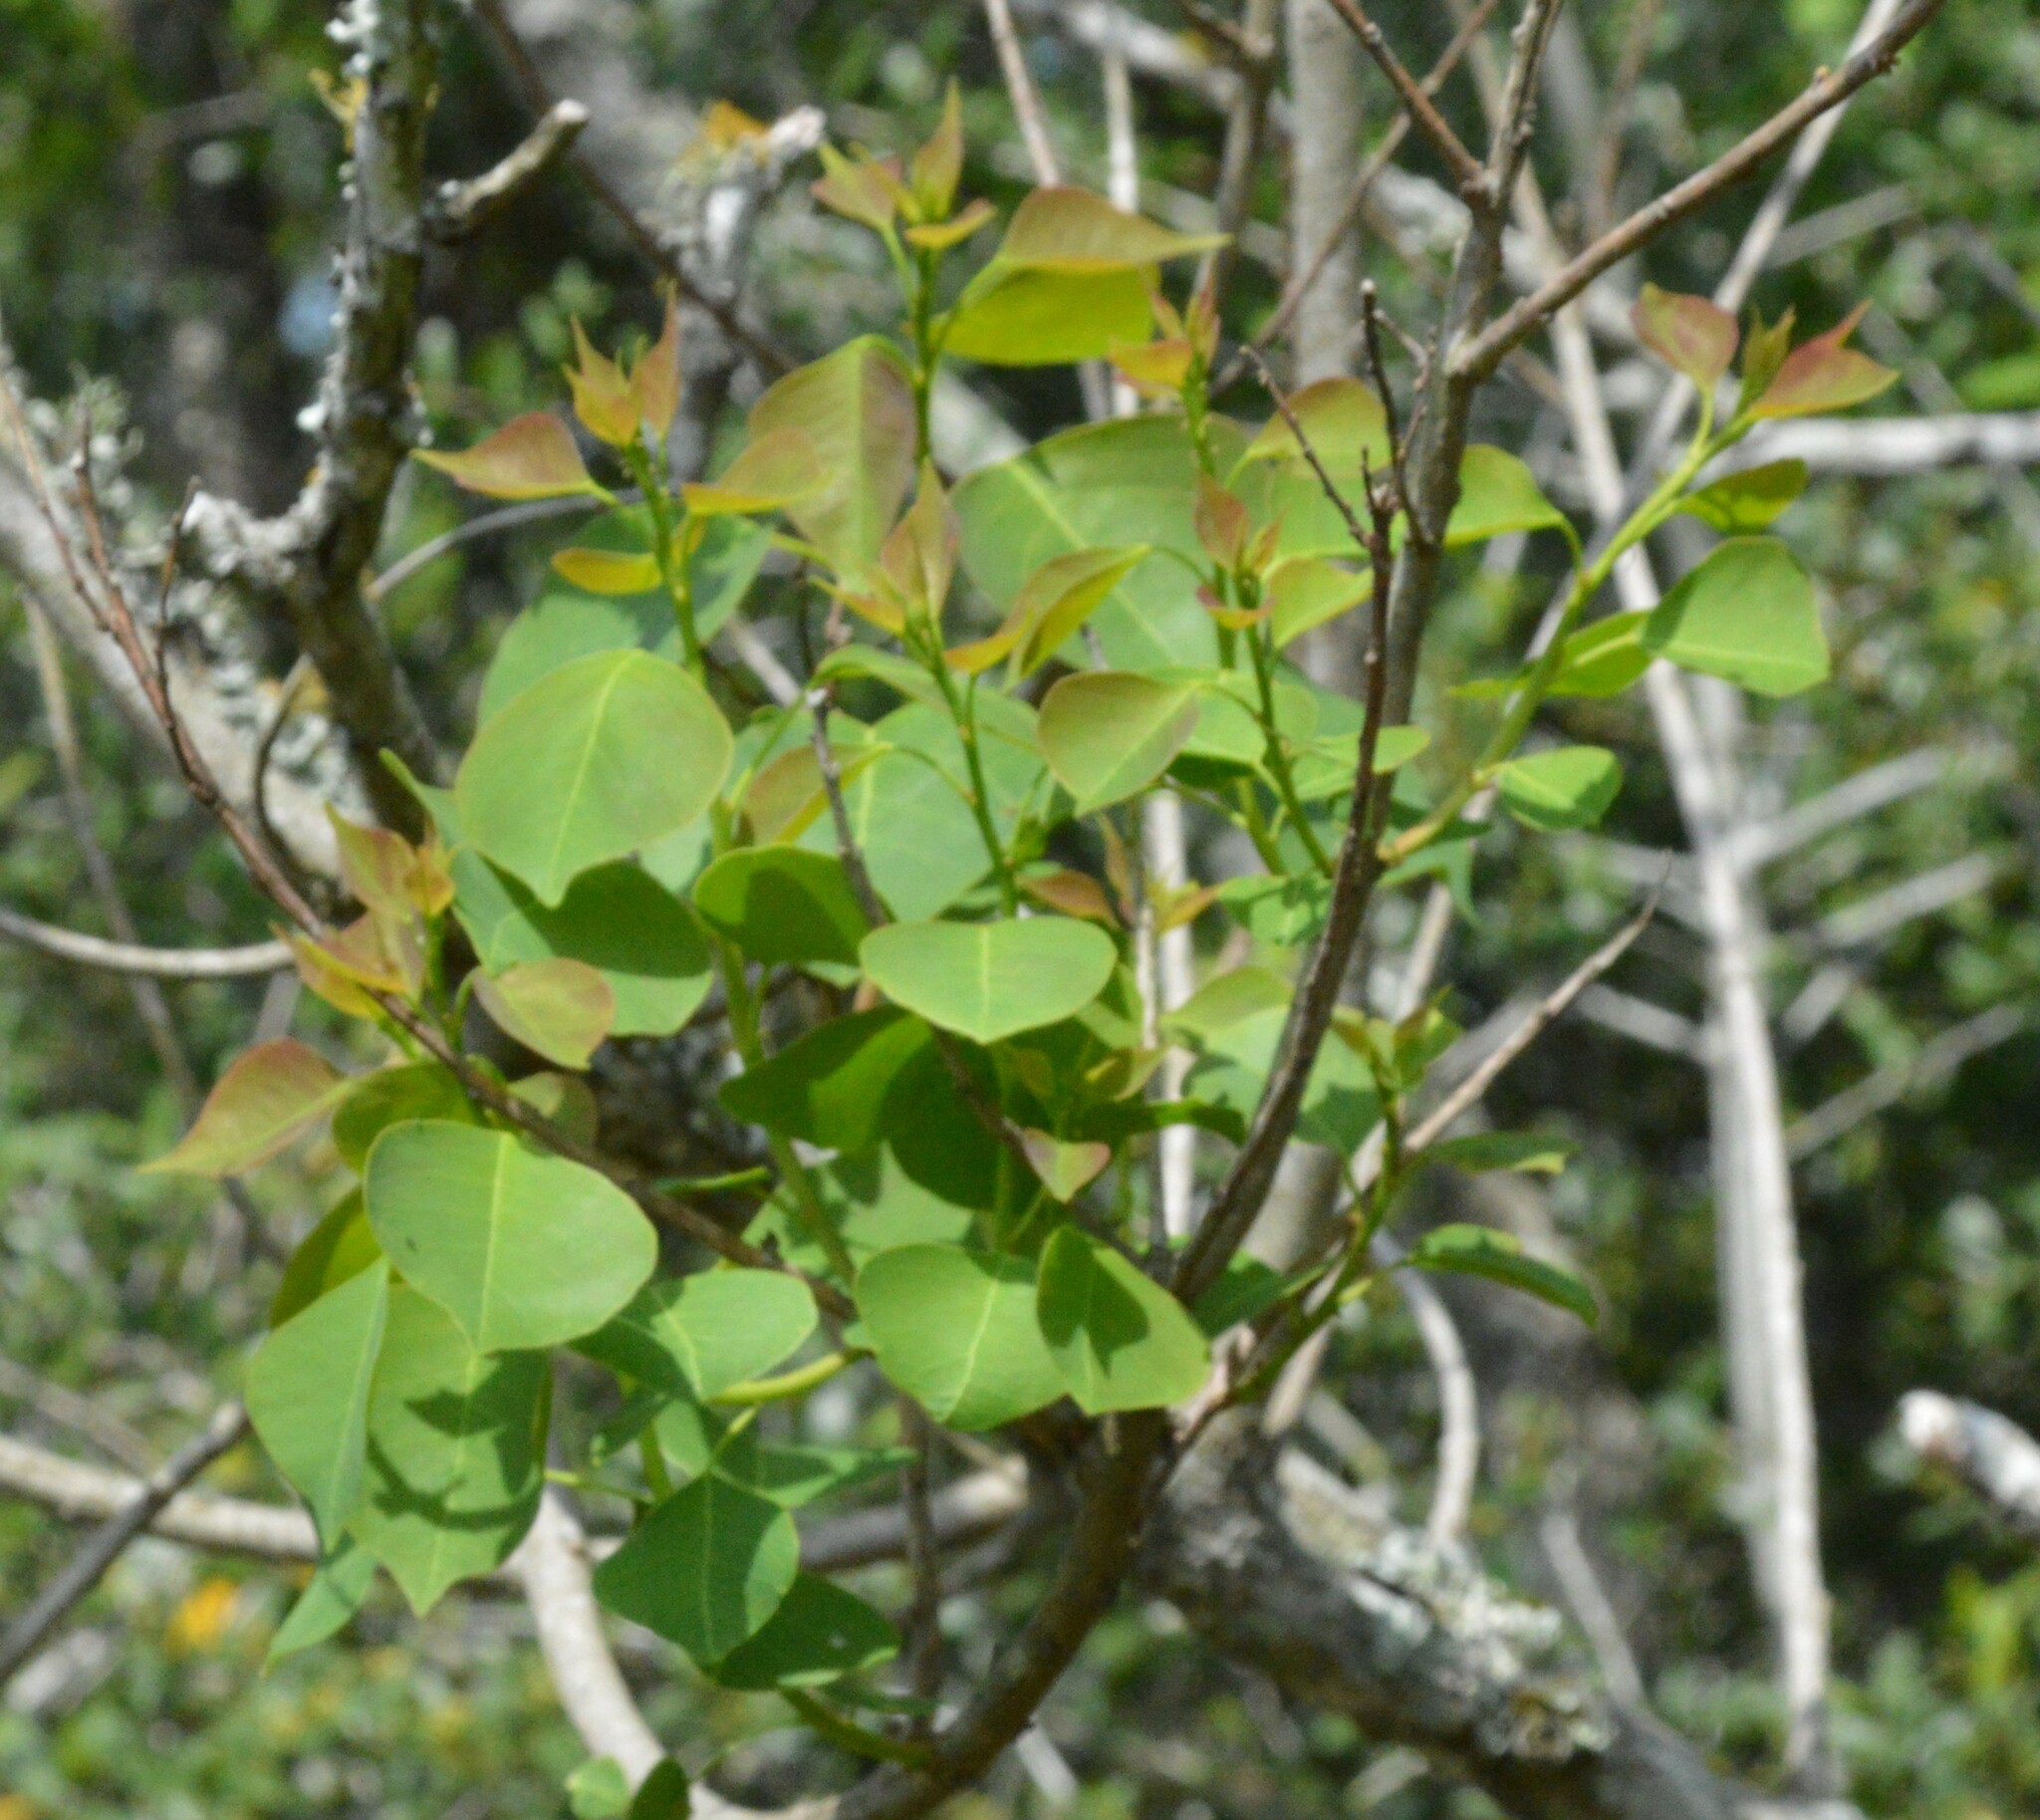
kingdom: Plantae
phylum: Tracheophyta
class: Magnoliopsida
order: Malpighiales
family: Euphorbiaceae
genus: Triadica
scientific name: Triadica sebifera
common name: Chinese tallow
